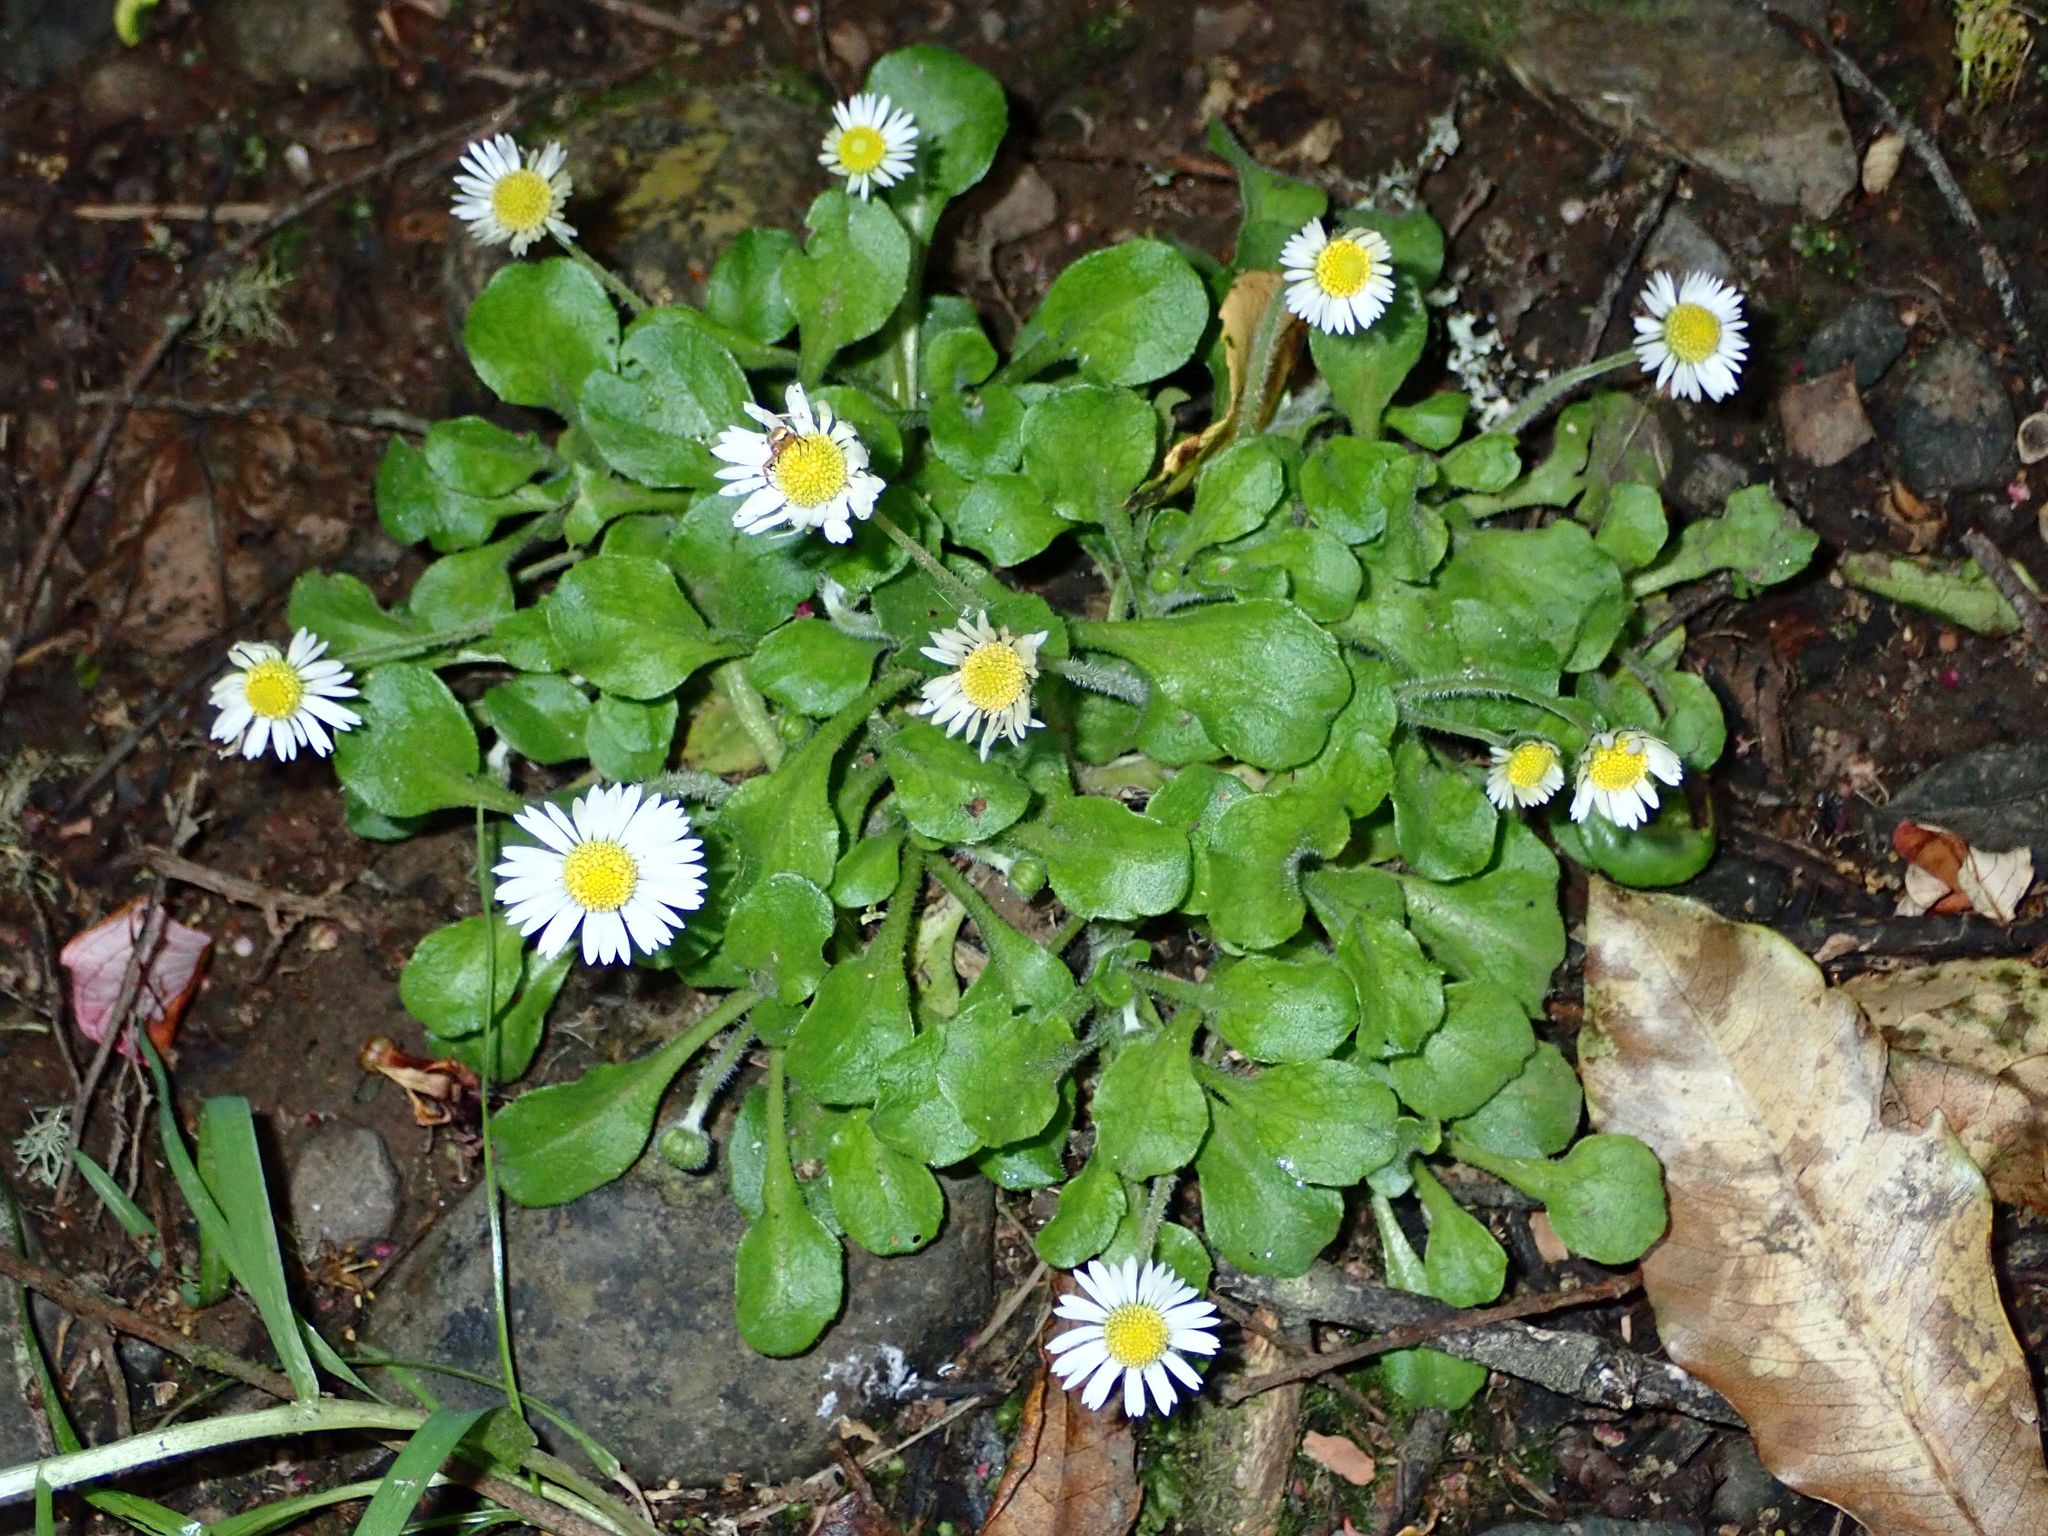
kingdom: Plantae
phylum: Tracheophyta
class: Magnoliopsida
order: Asterales
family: Asteraceae
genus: Bellis
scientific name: Bellis perennis
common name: Lawndaisy
